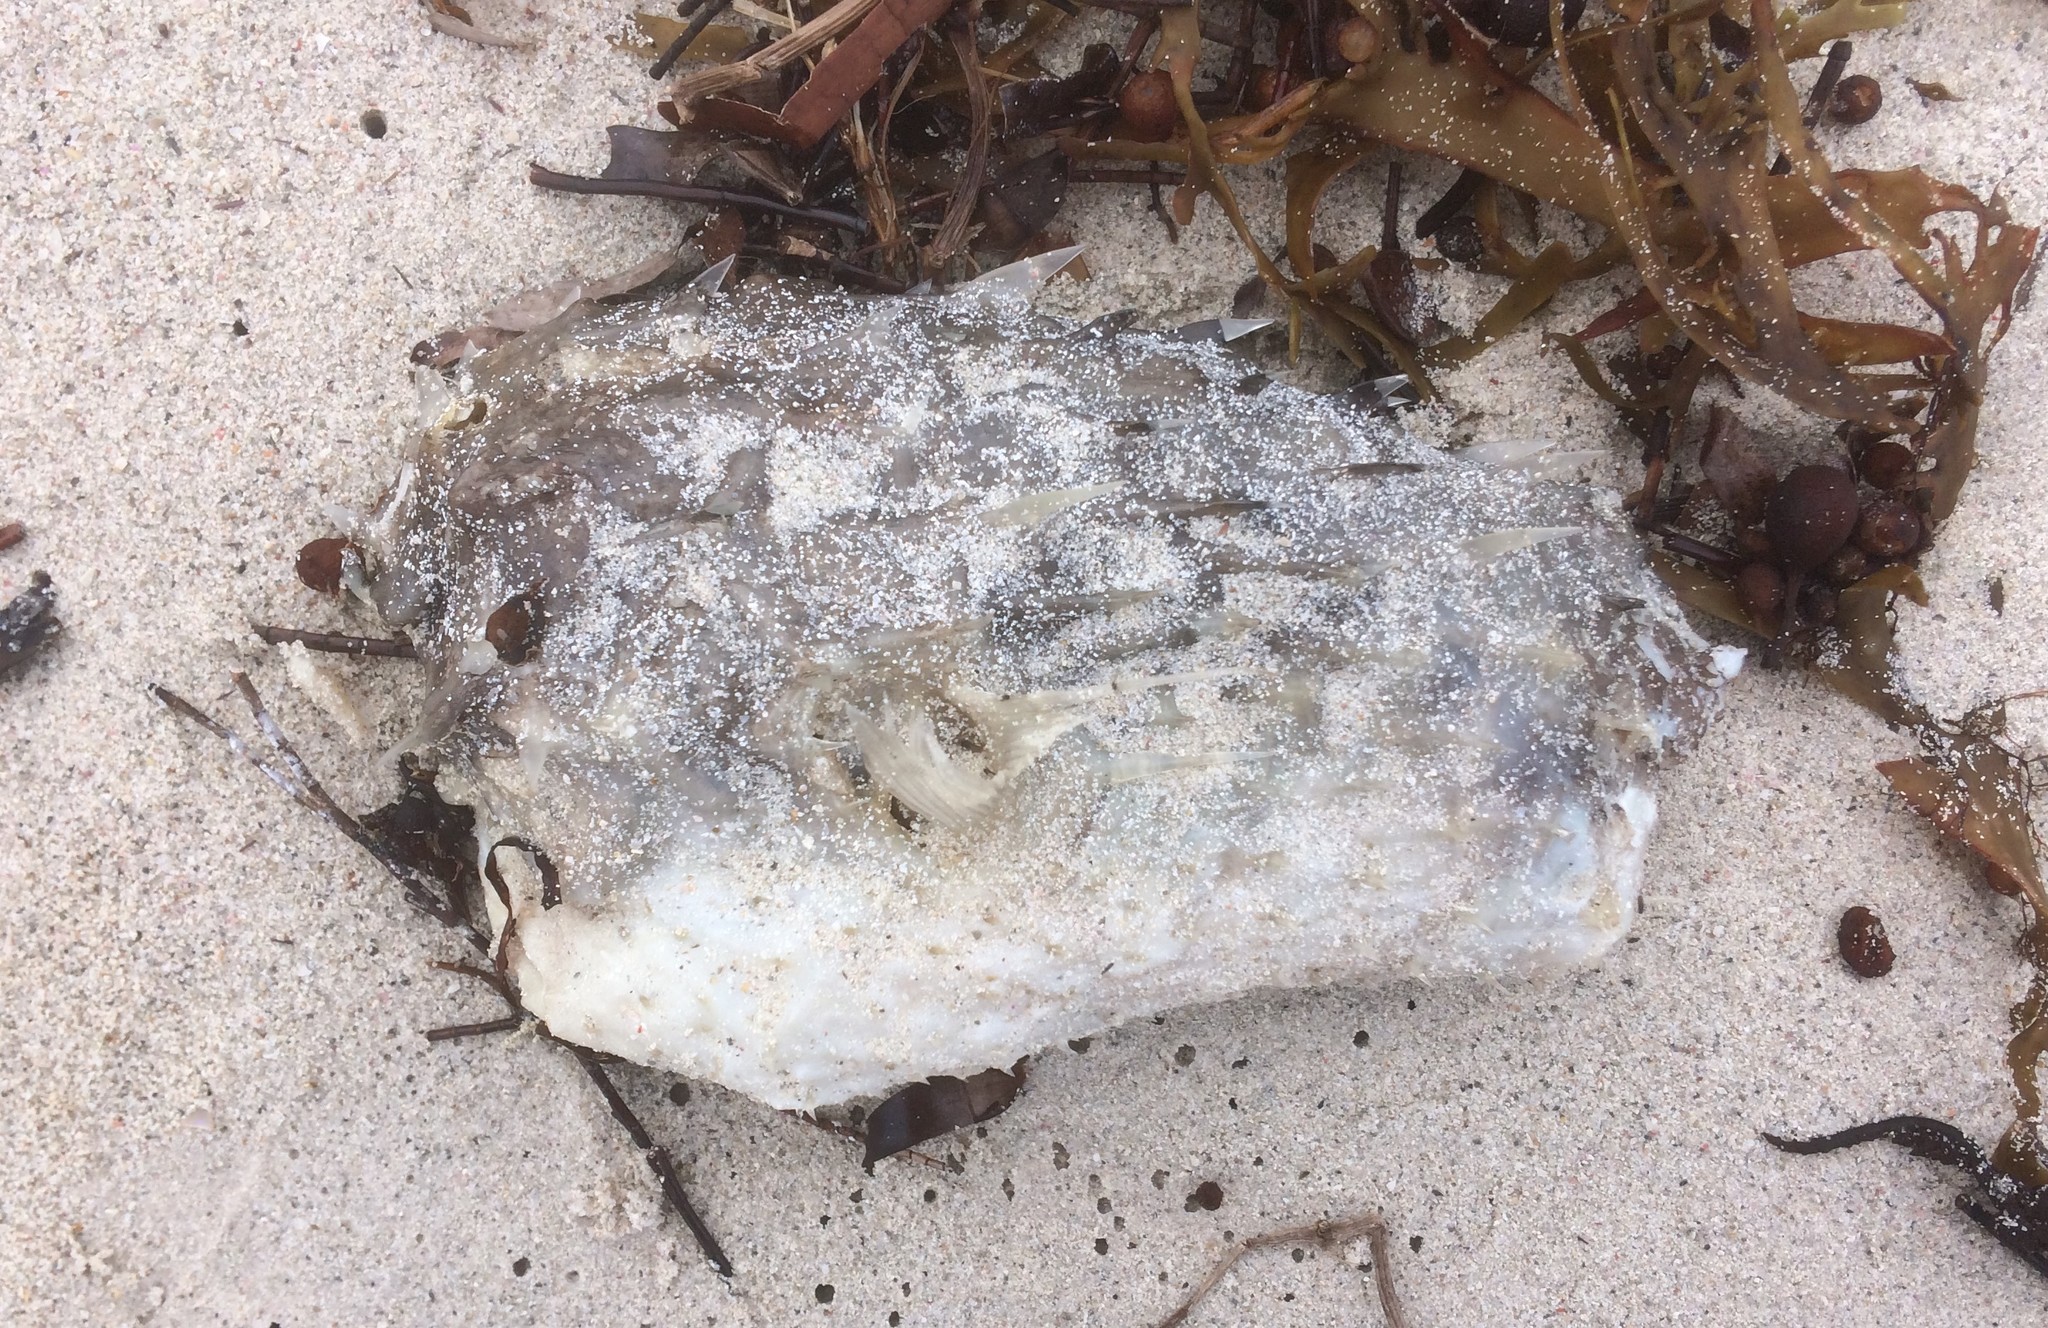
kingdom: Animalia
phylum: Chordata
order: Tetraodontiformes
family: Diodontidae
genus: Allomycterus
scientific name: Allomycterus pilatus
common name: No common name
